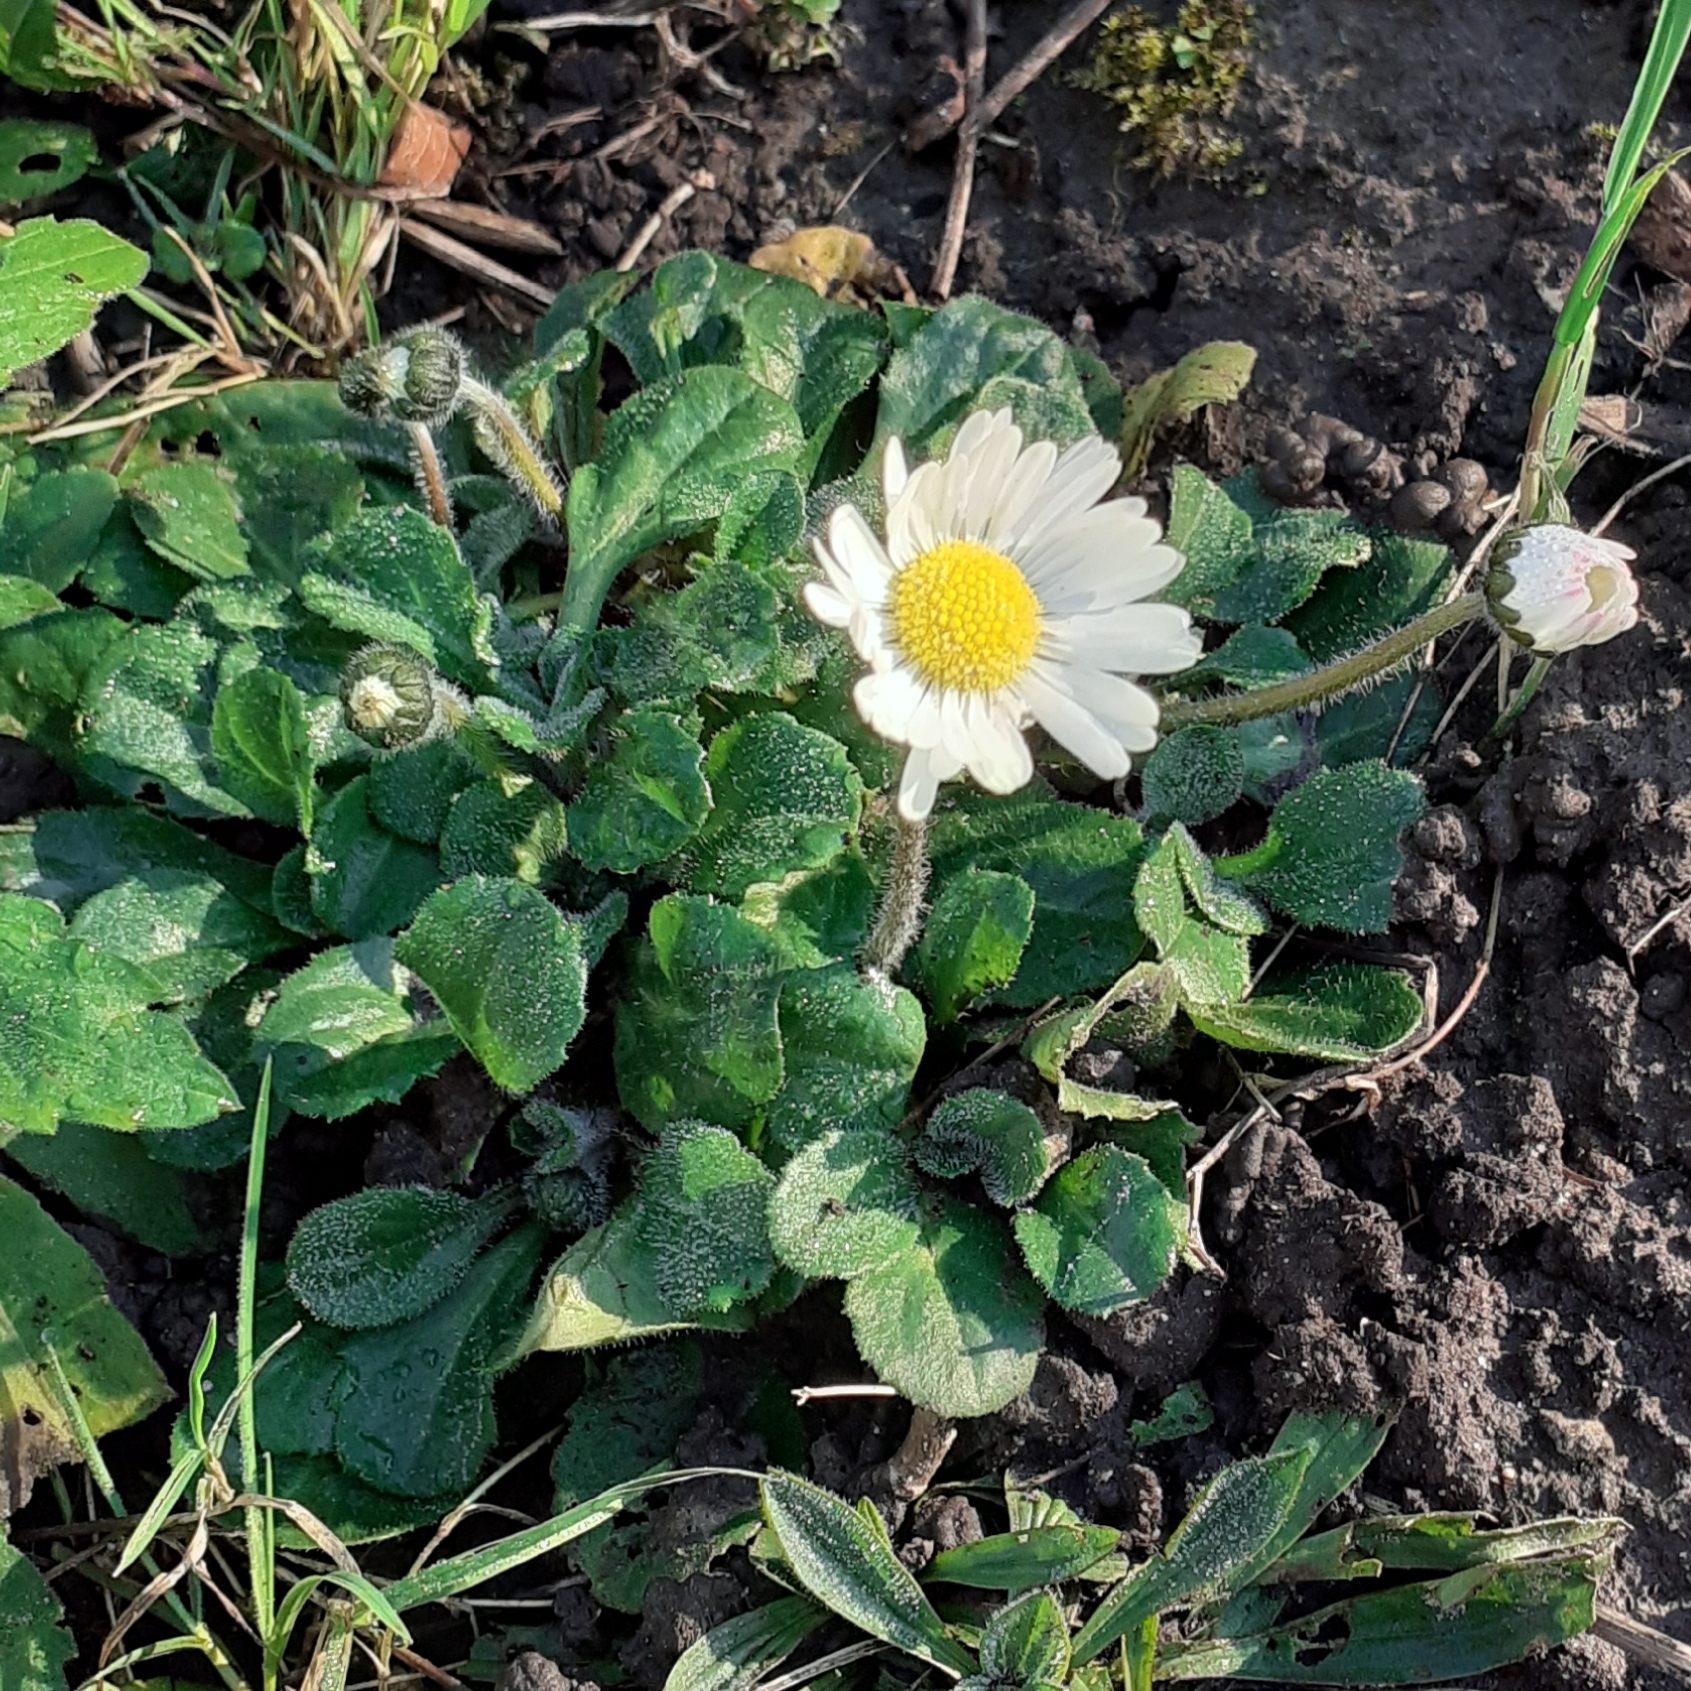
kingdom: Plantae
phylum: Tracheophyta
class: Magnoliopsida
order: Asterales
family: Asteraceae
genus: Bellis
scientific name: Bellis perennis
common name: Lawndaisy
